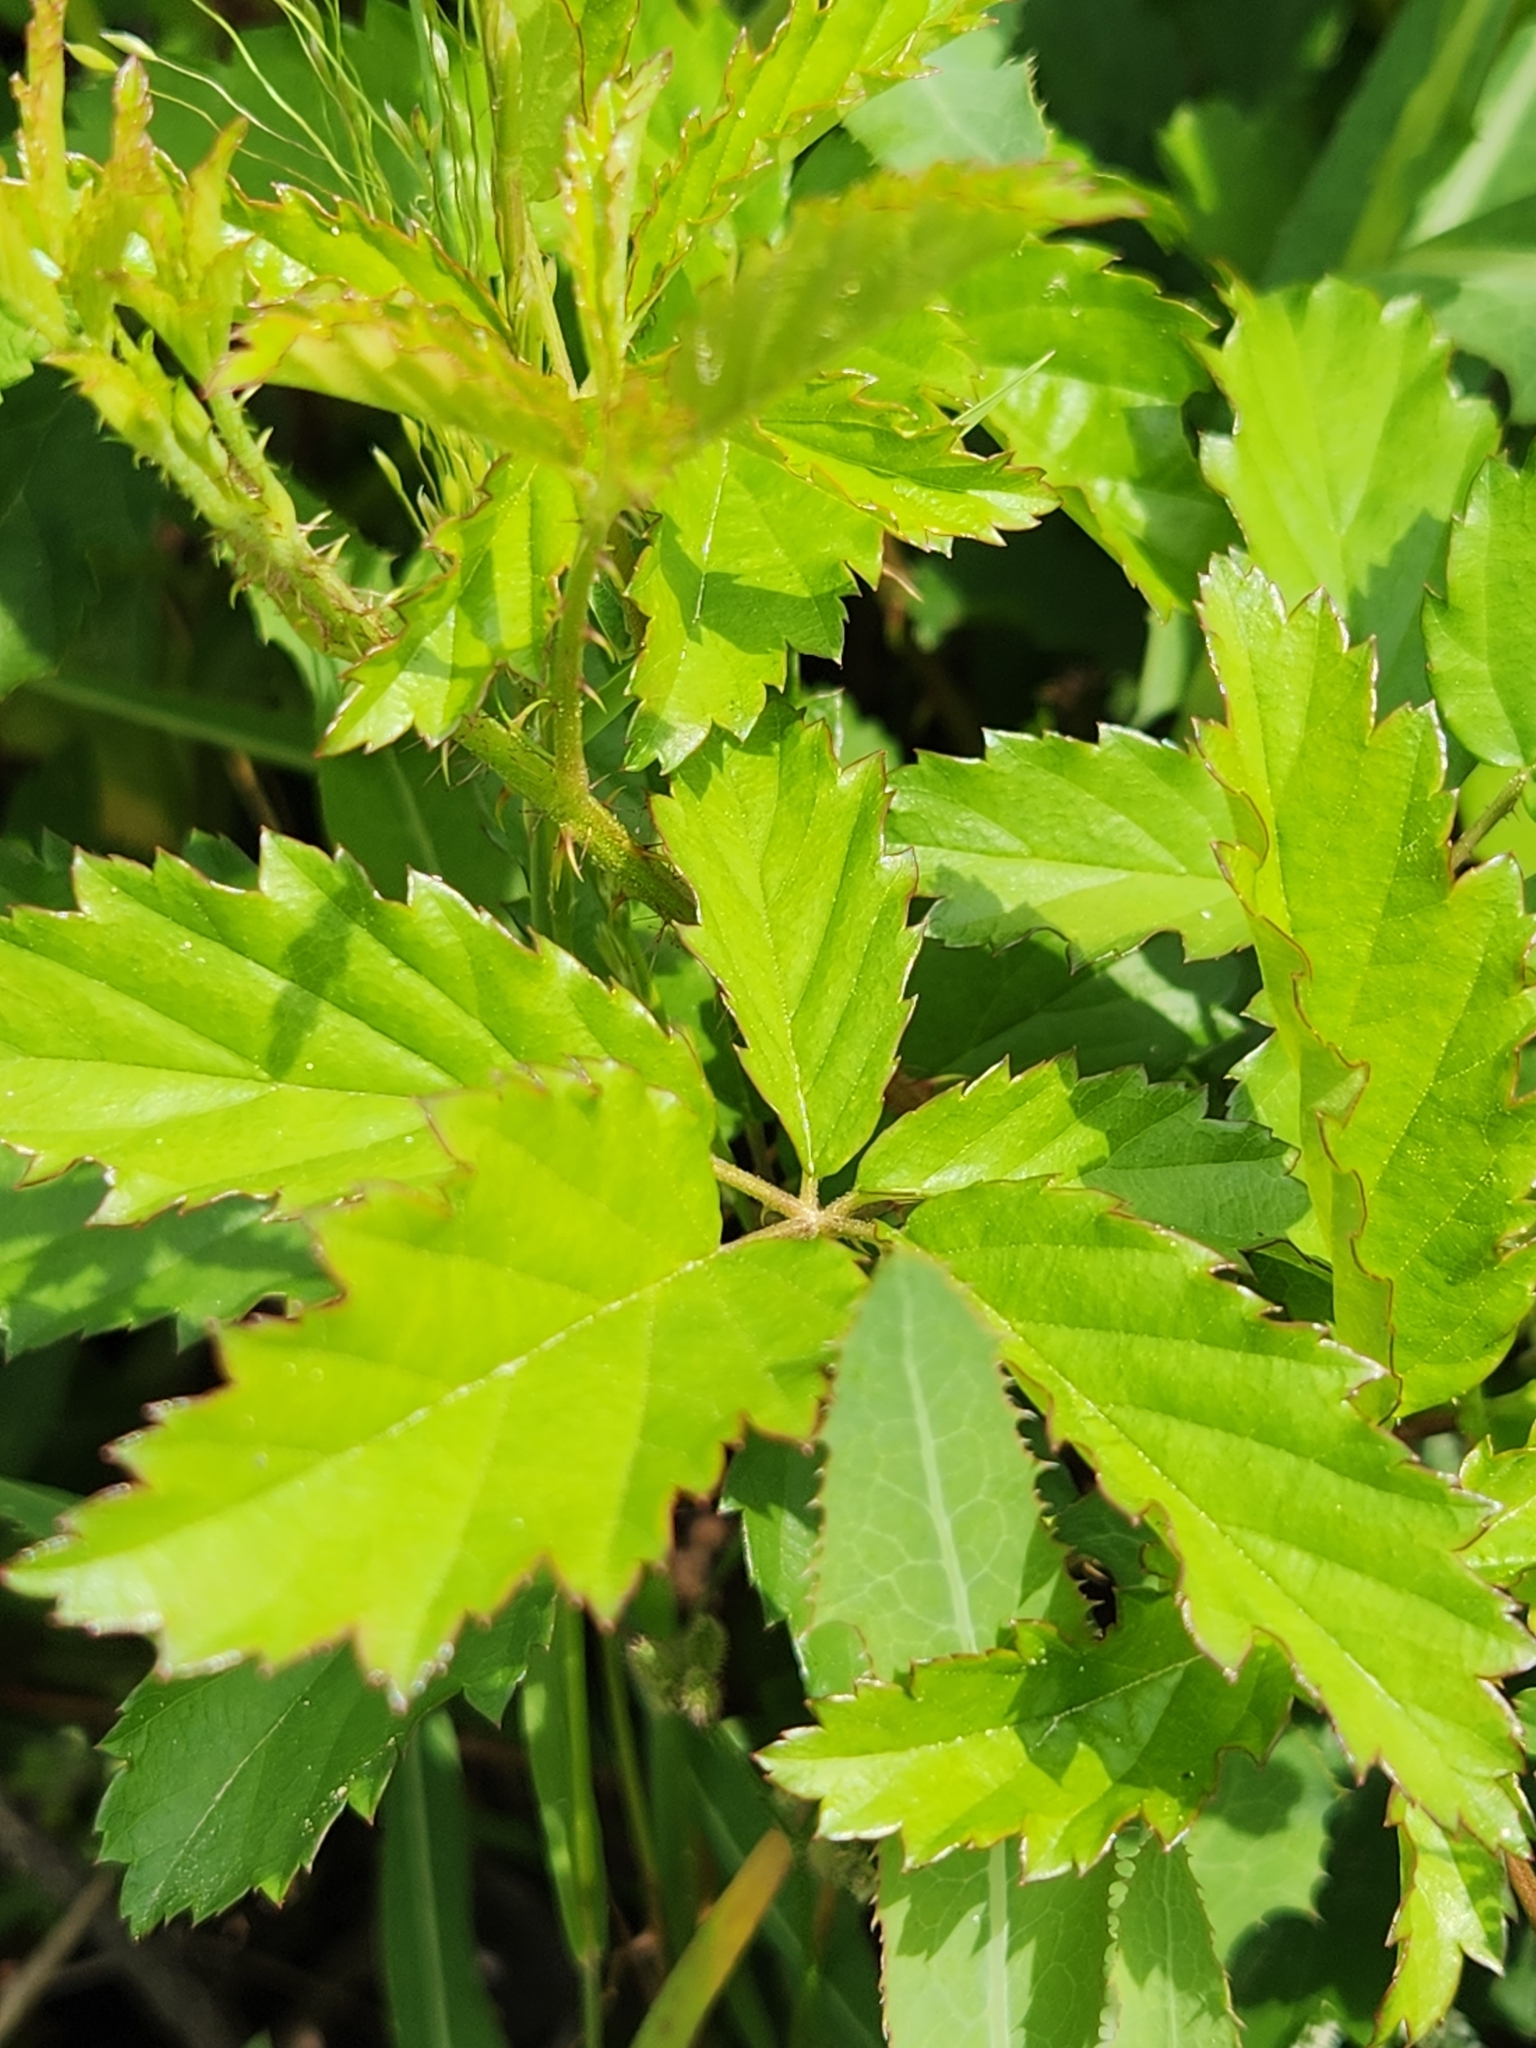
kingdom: Plantae
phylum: Tracheophyta
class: Magnoliopsida
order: Rosales
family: Rosaceae
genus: Rubus
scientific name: Rubus trivialis
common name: Southern dewberry
